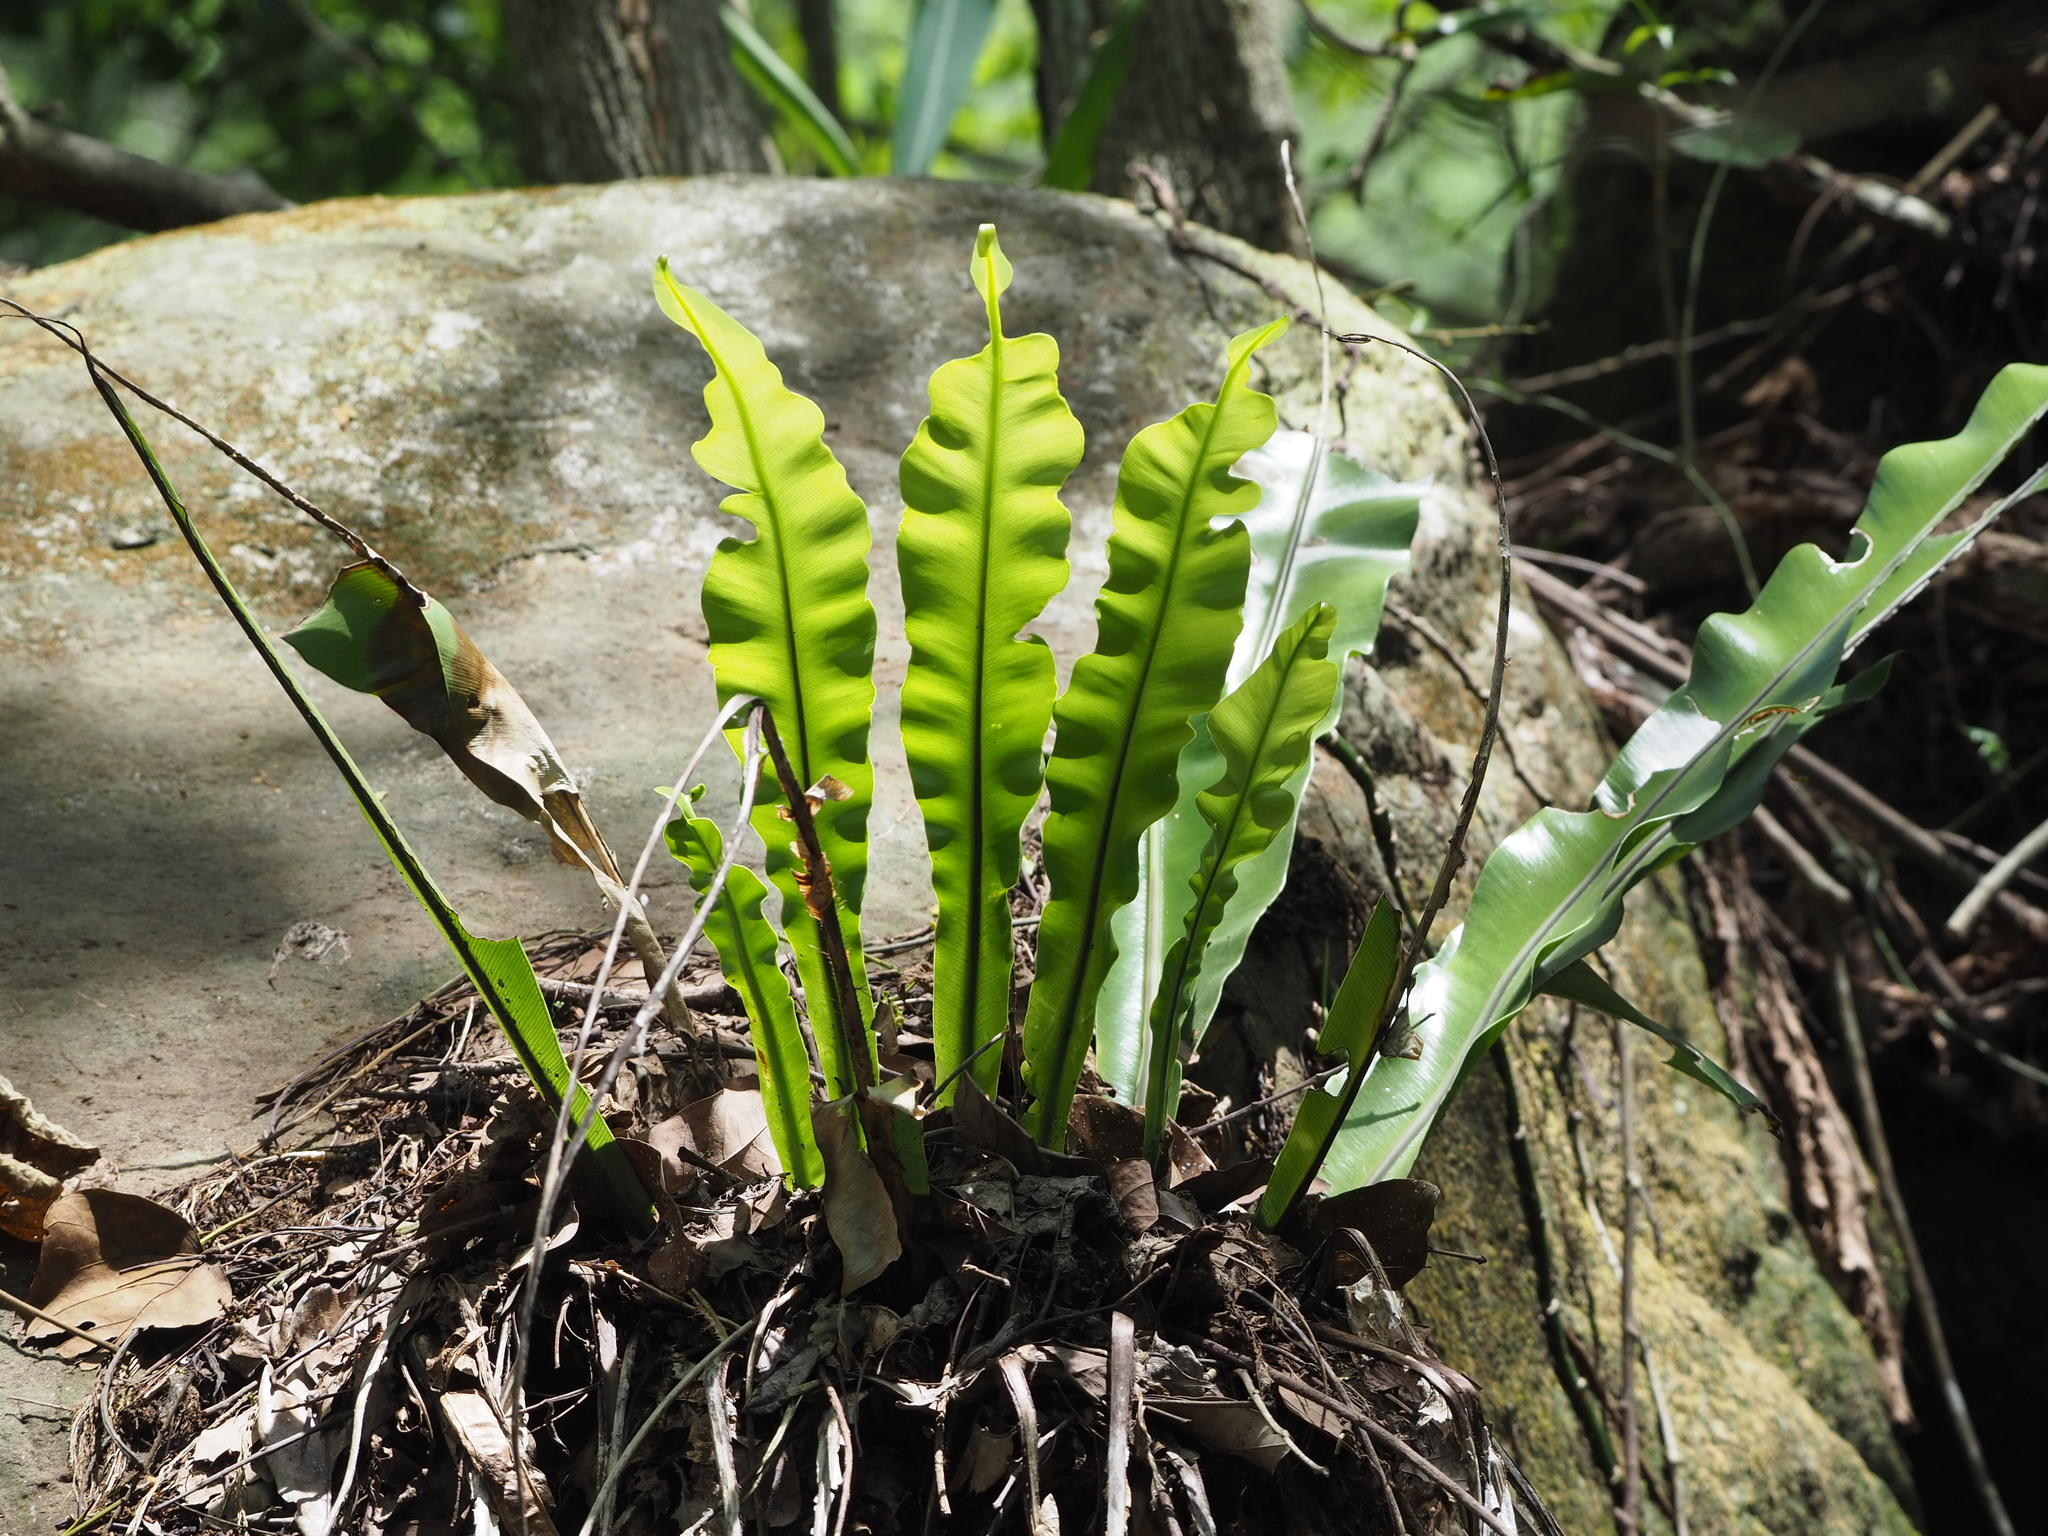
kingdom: Plantae
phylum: Tracheophyta
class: Polypodiopsida
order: Polypodiales
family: Aspleniaceae
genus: Asplenium
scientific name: Asplenium nidus
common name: Bird's-nest fern
